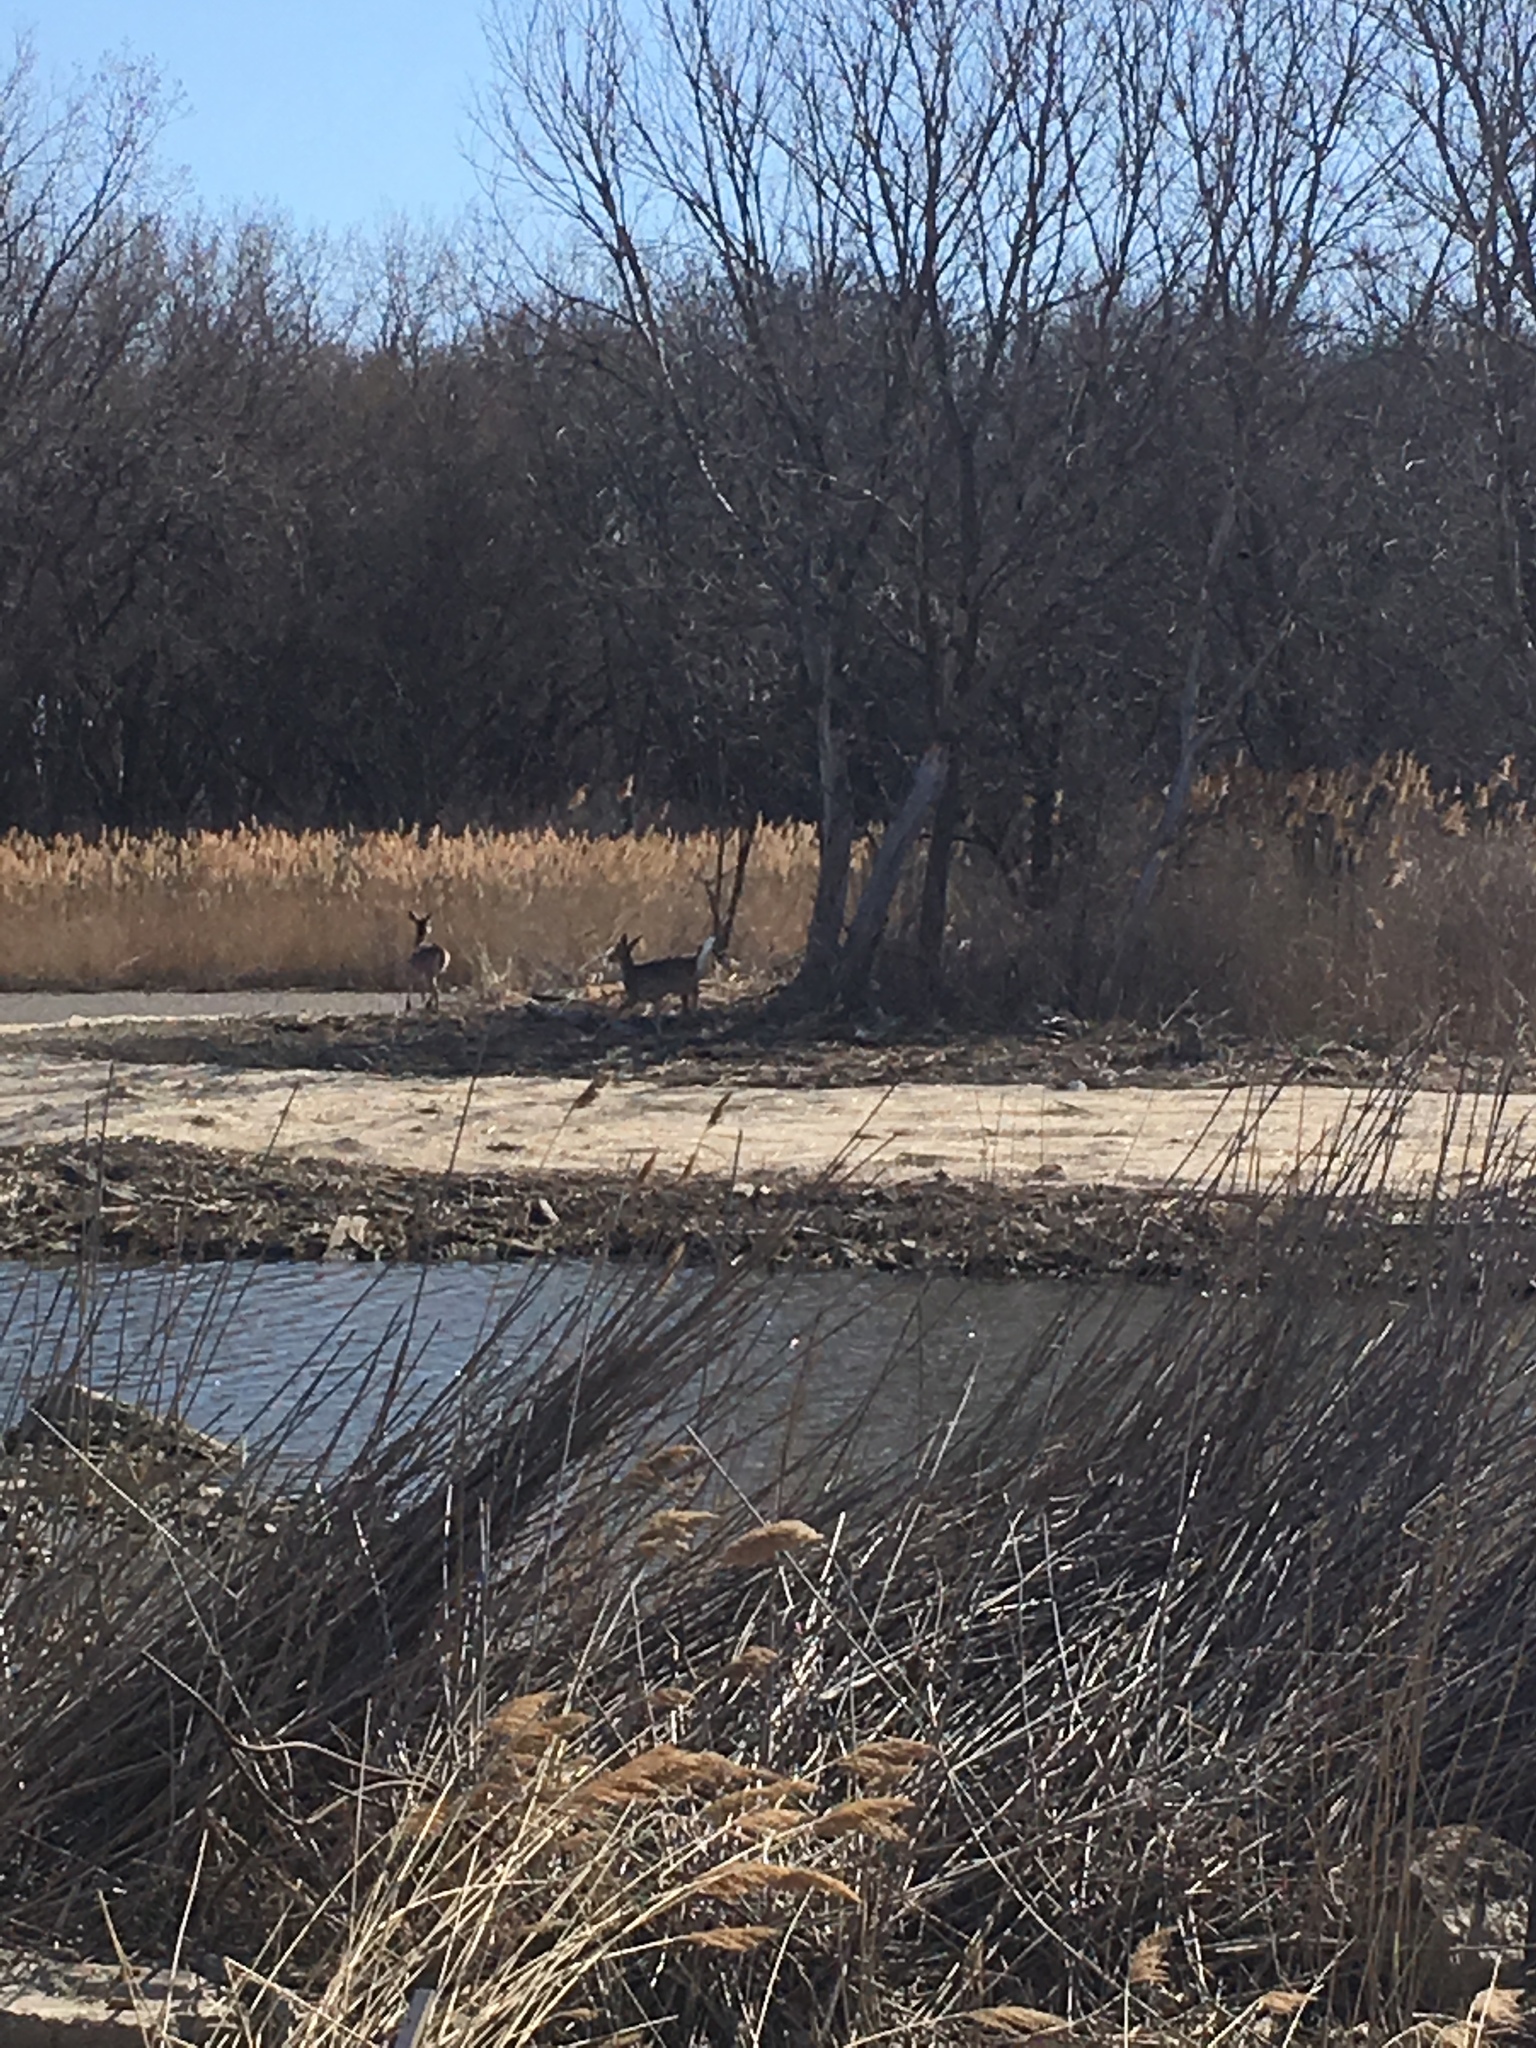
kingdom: Animalia
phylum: Chordata
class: Mammalia
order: Artiodactyla
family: Cervidae
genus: Odocoileus
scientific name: Odocoileus virginianus
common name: White-tailed deer
